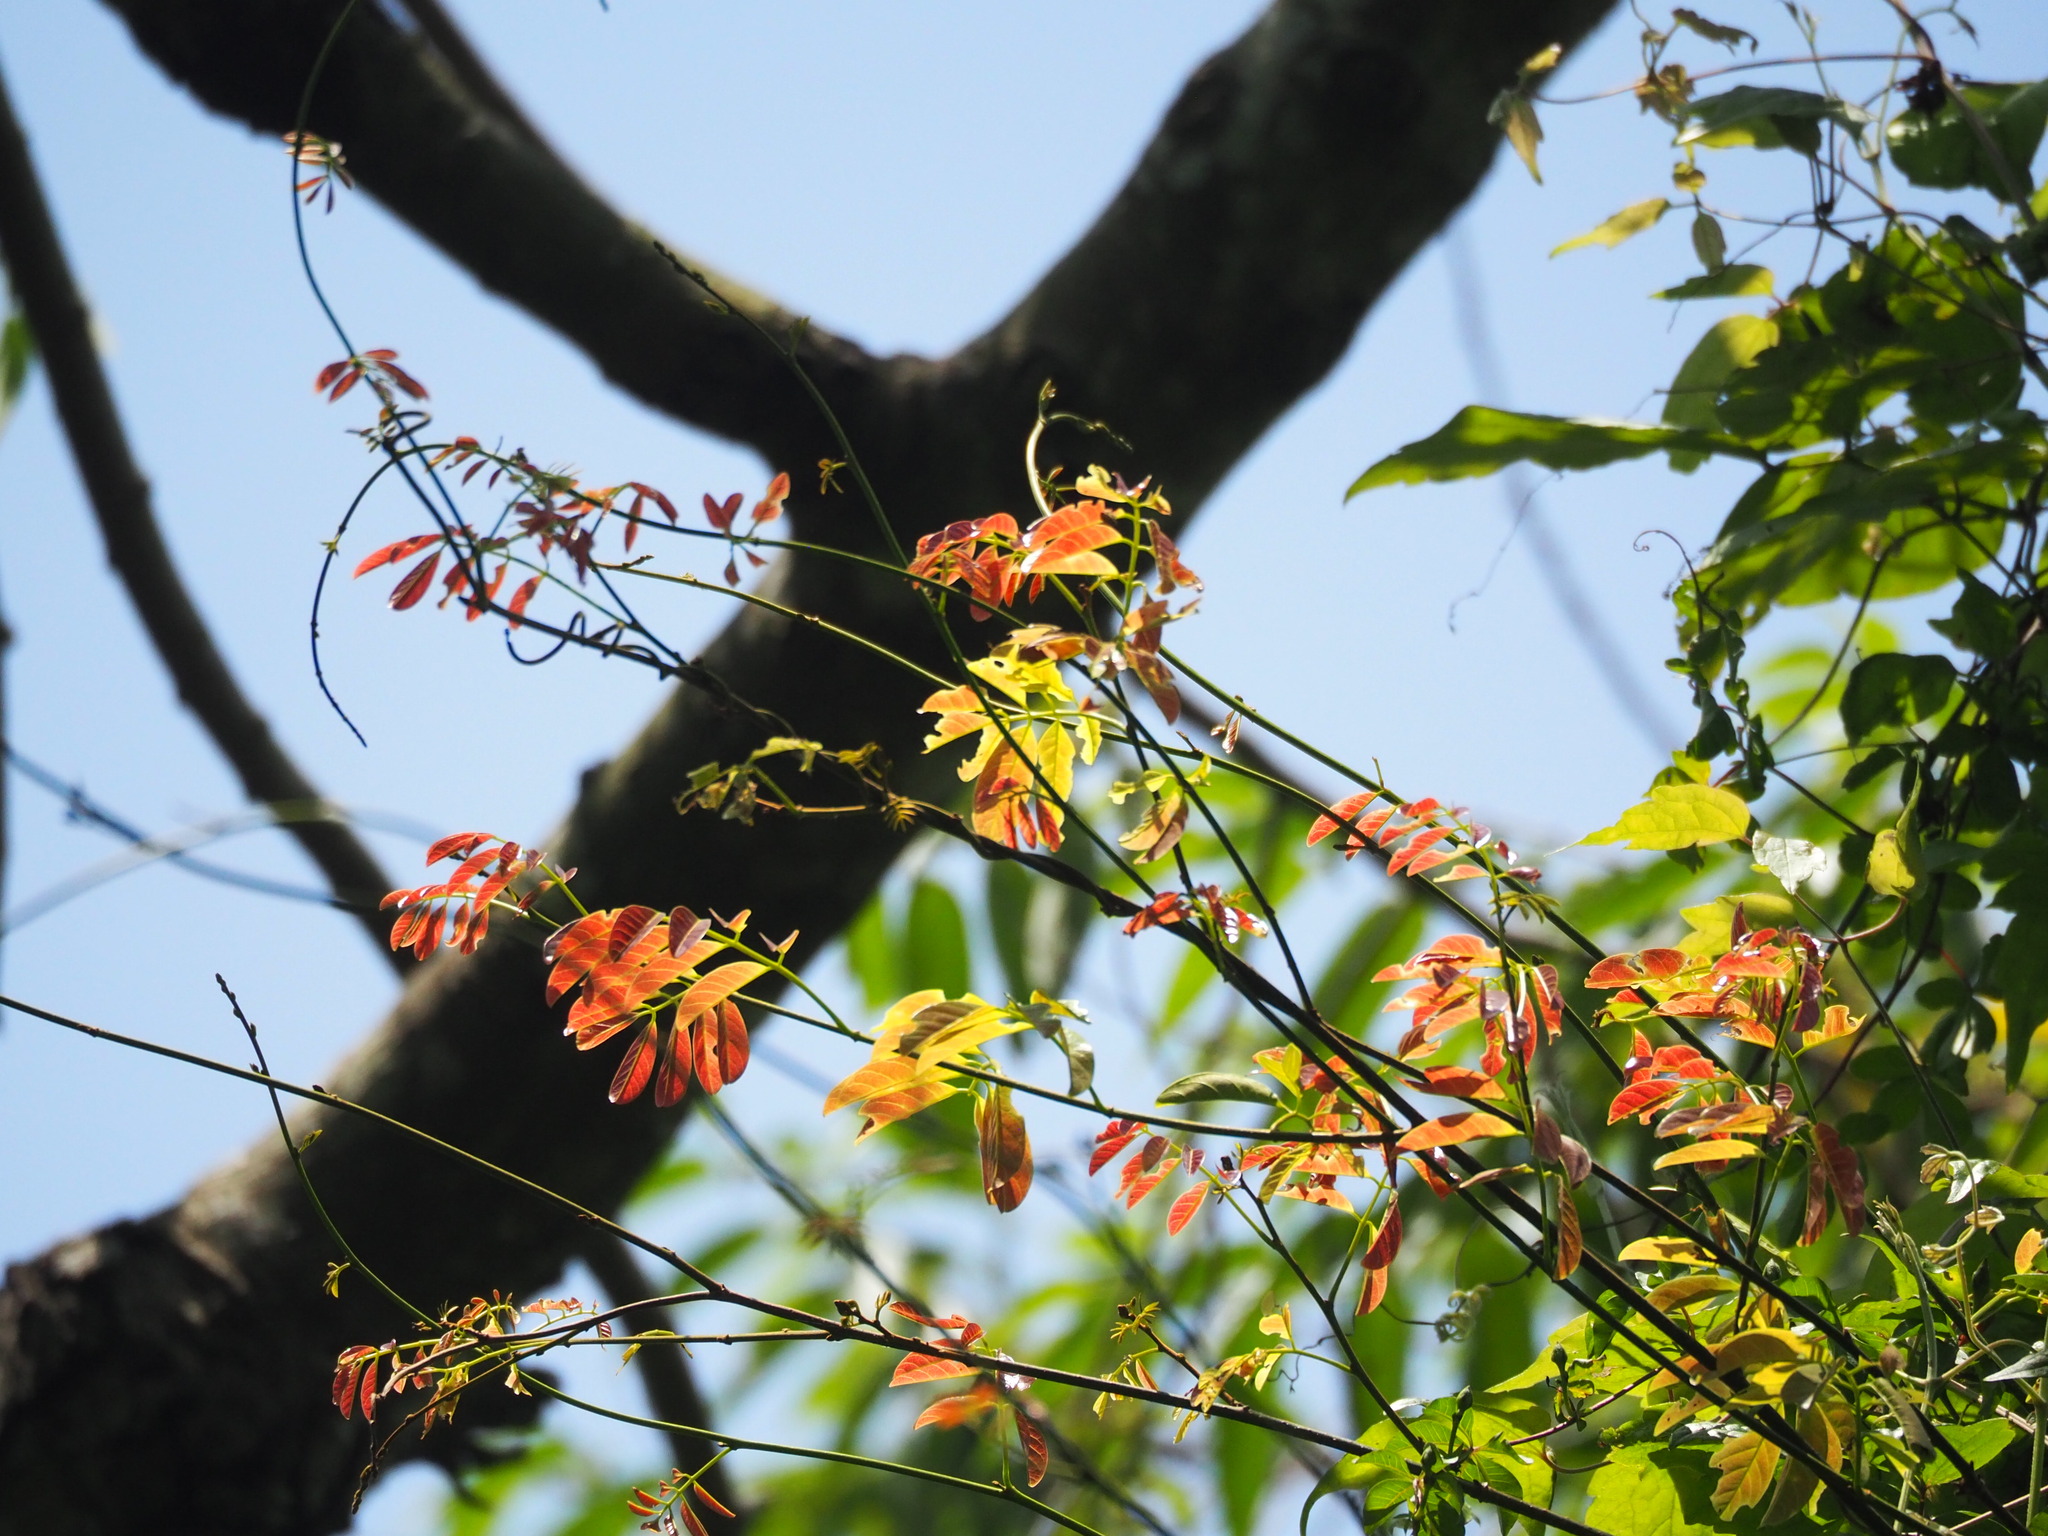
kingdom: Plantae
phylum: Tracheophyta
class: Magnoliopsida
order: Fabales
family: Fabaceae
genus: Millettia
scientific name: Millettia pachycarpa
